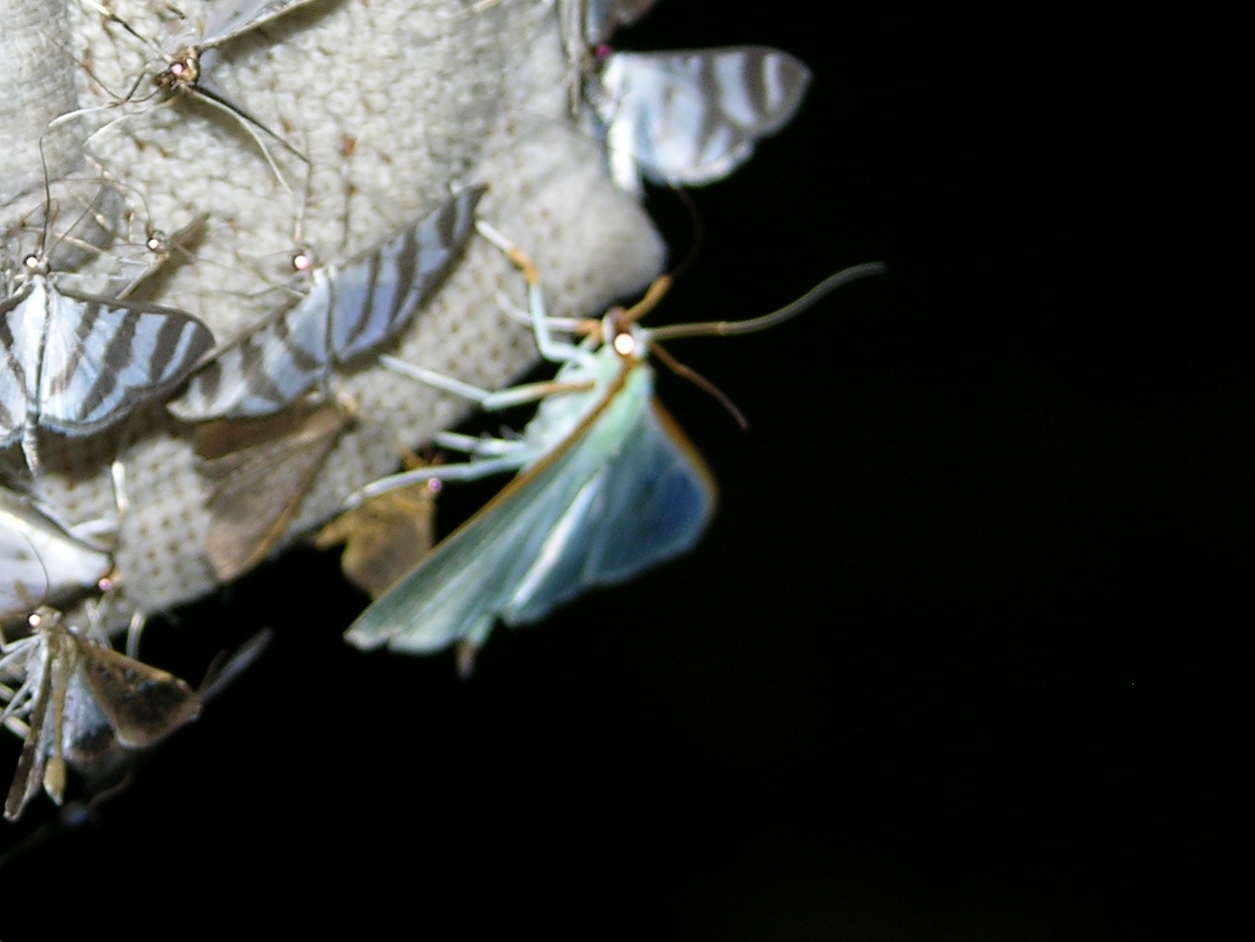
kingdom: Animalia
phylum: Arthropoda
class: Insecta
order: Lepidoptera
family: Crambidae
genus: Stemorrhages
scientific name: Stemorrhages sericea
